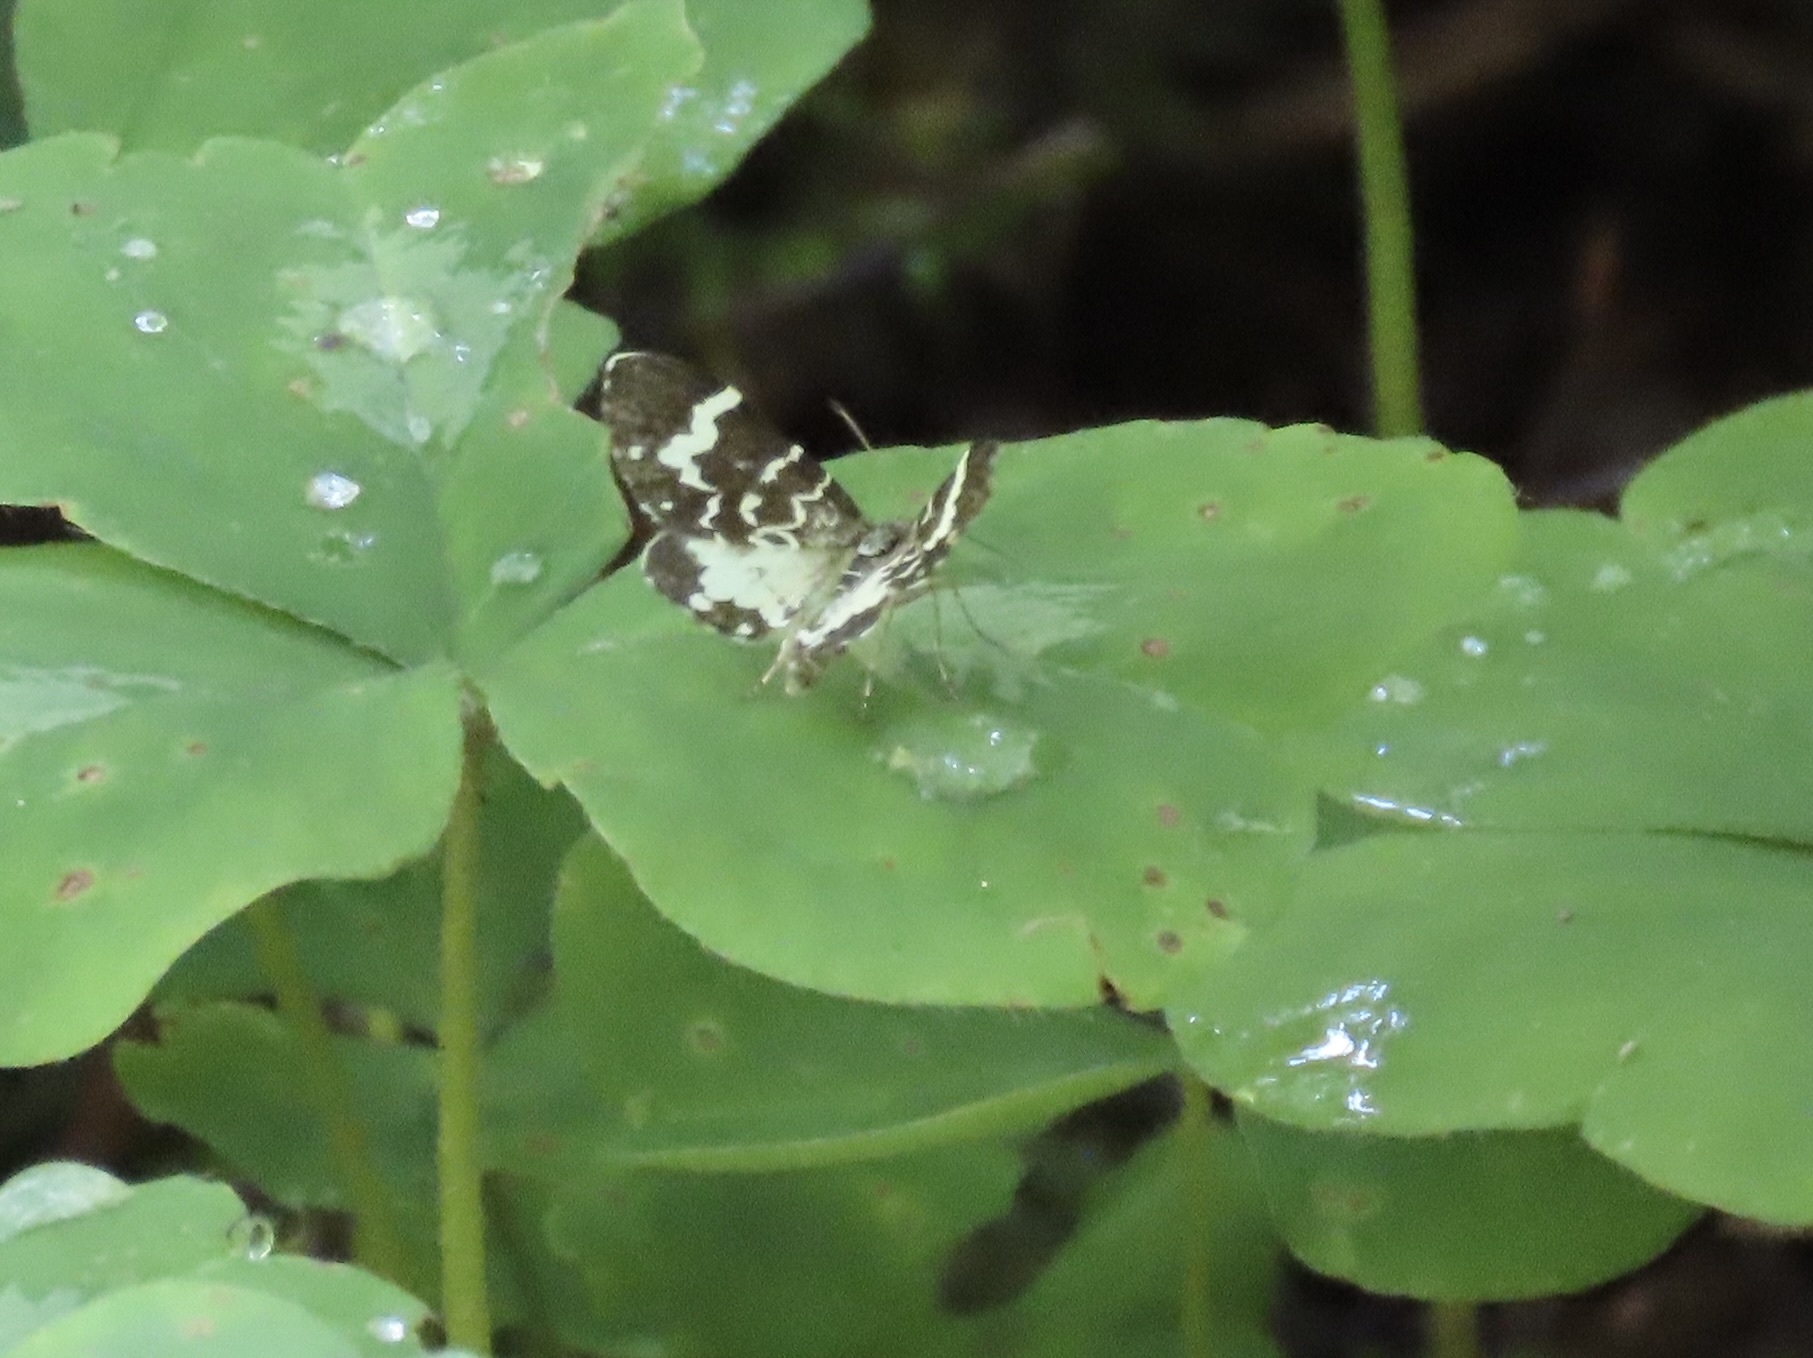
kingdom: Animalia
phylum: Arthropoda
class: Insecta
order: Lepidoptera
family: Geometridae
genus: Trichodezia
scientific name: Trichodezia californiata
